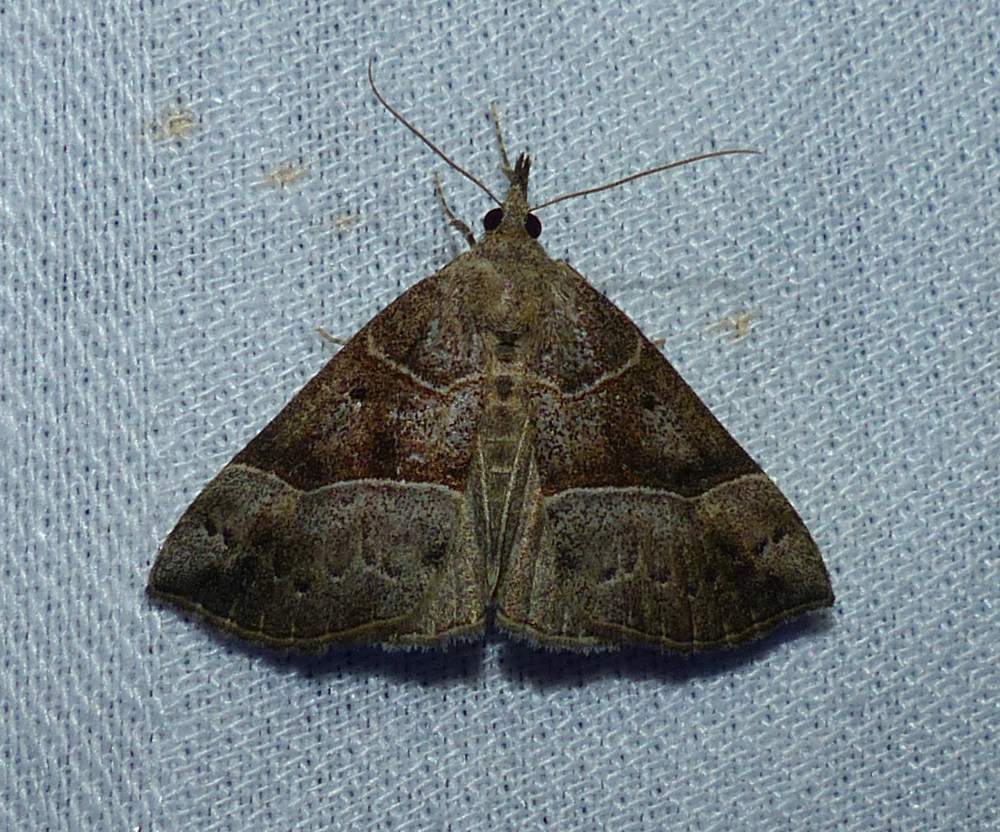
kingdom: Animalia
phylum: Arthropoda
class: Insecta
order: Lepidoptera
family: Erebidae
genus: Hypena
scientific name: Hypena deceptalis
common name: Deceptive snout
